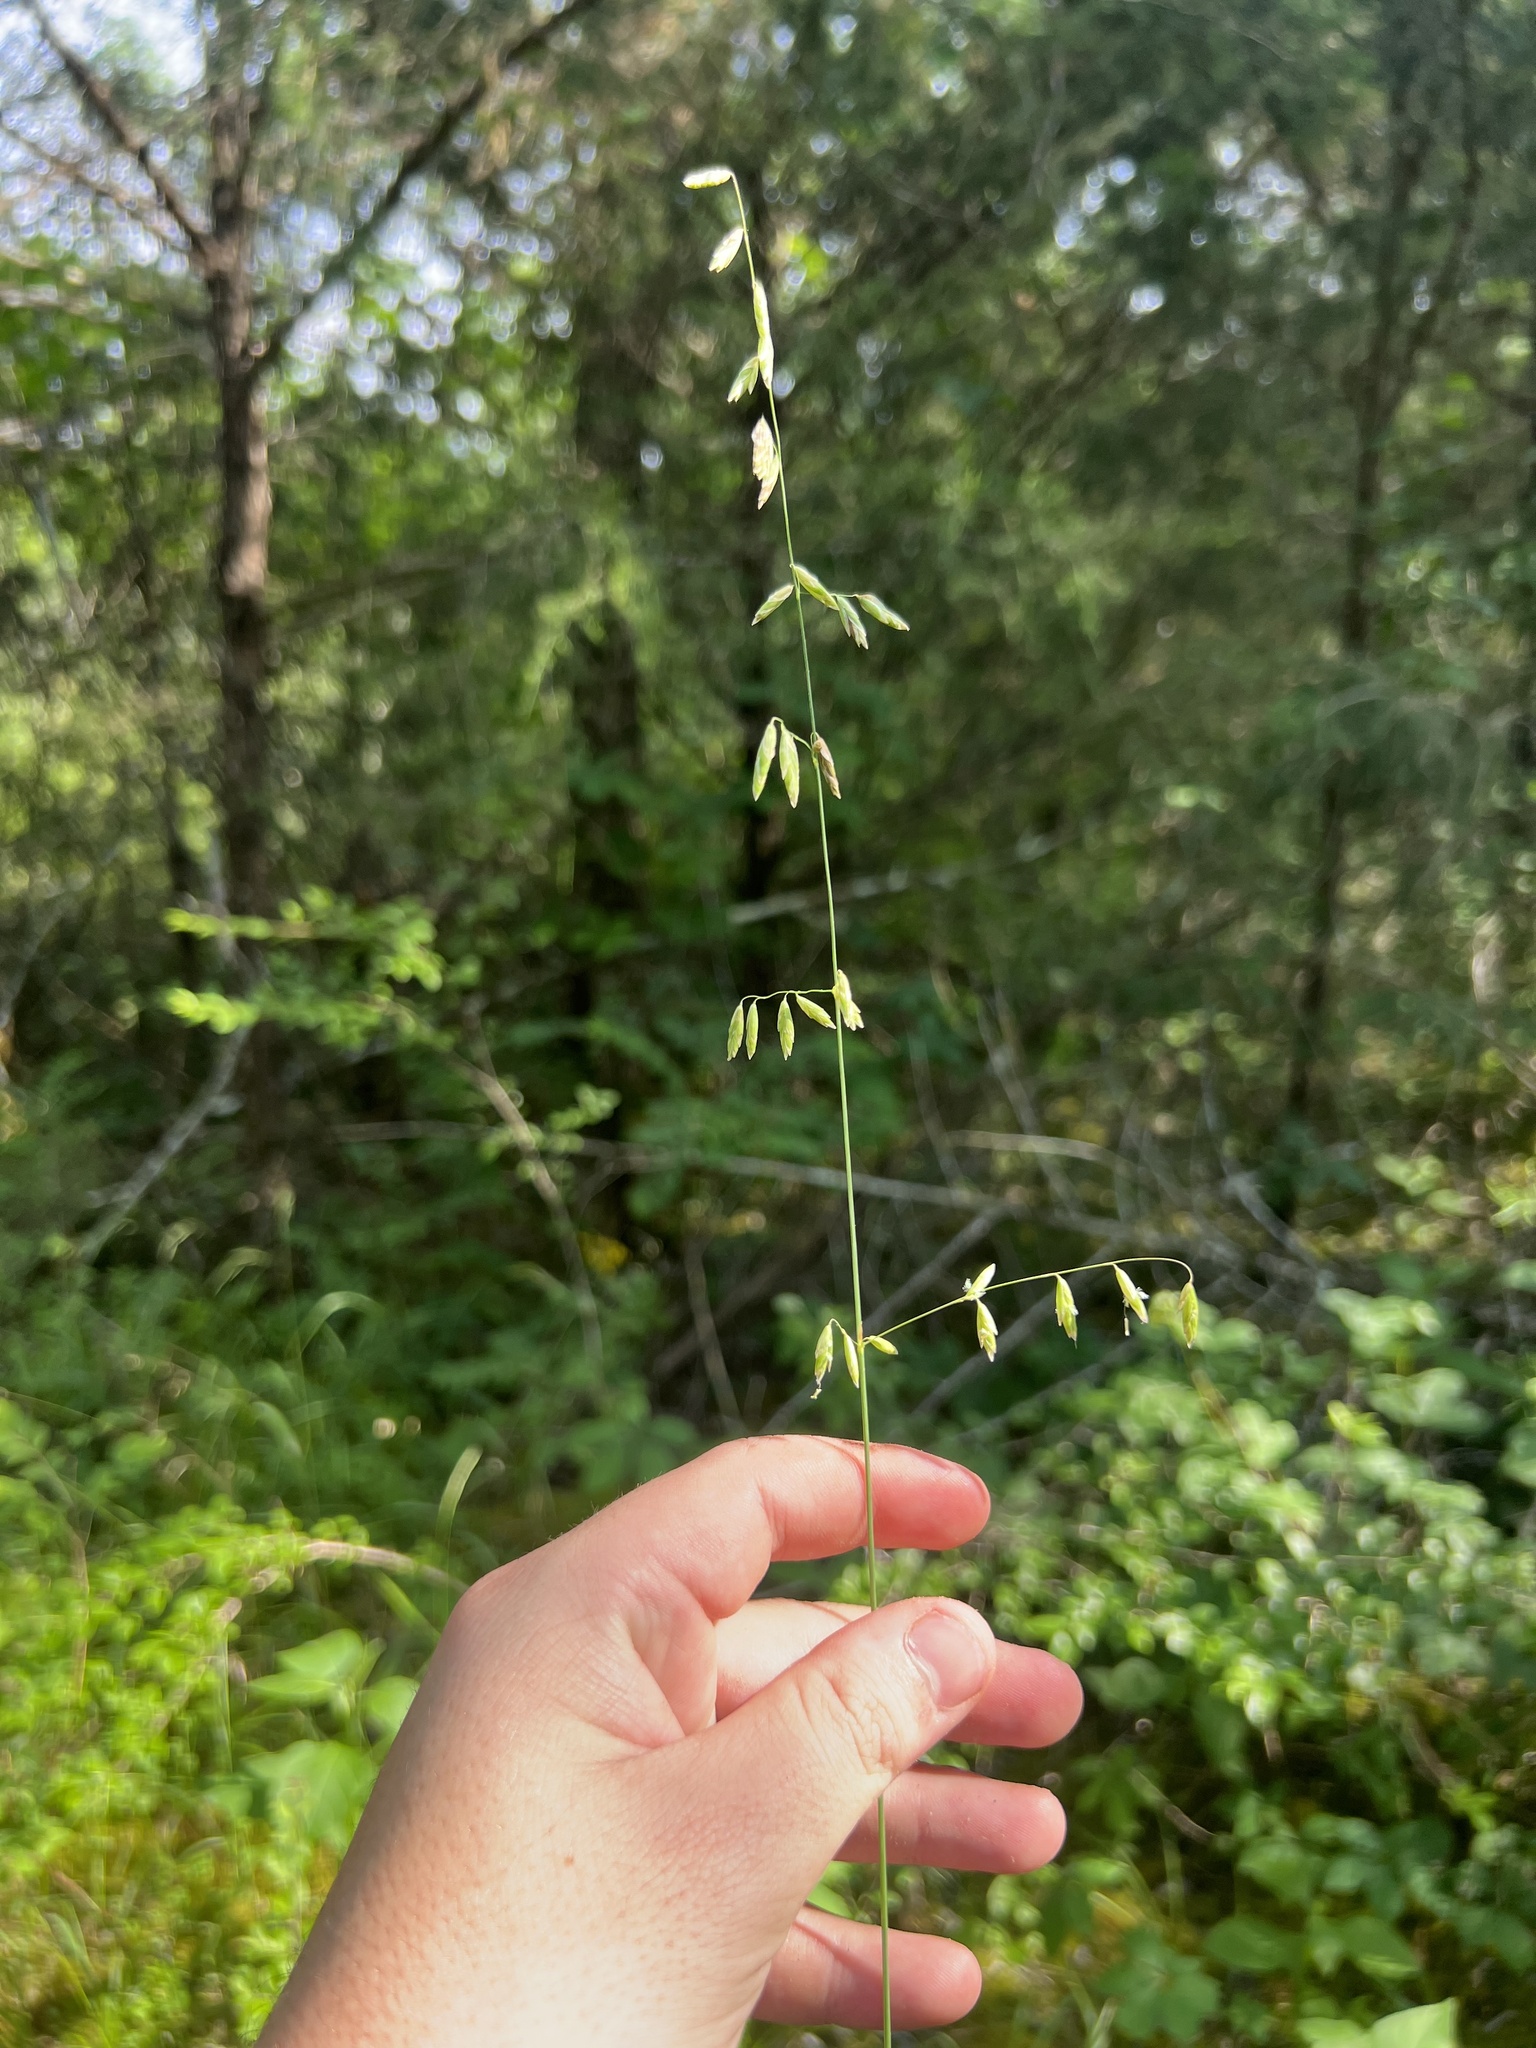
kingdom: Plantae
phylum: Tracheophyta
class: Liliopsida
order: Poales
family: Poaceae
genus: Melica
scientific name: Melica mutica
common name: Two-flower melic
